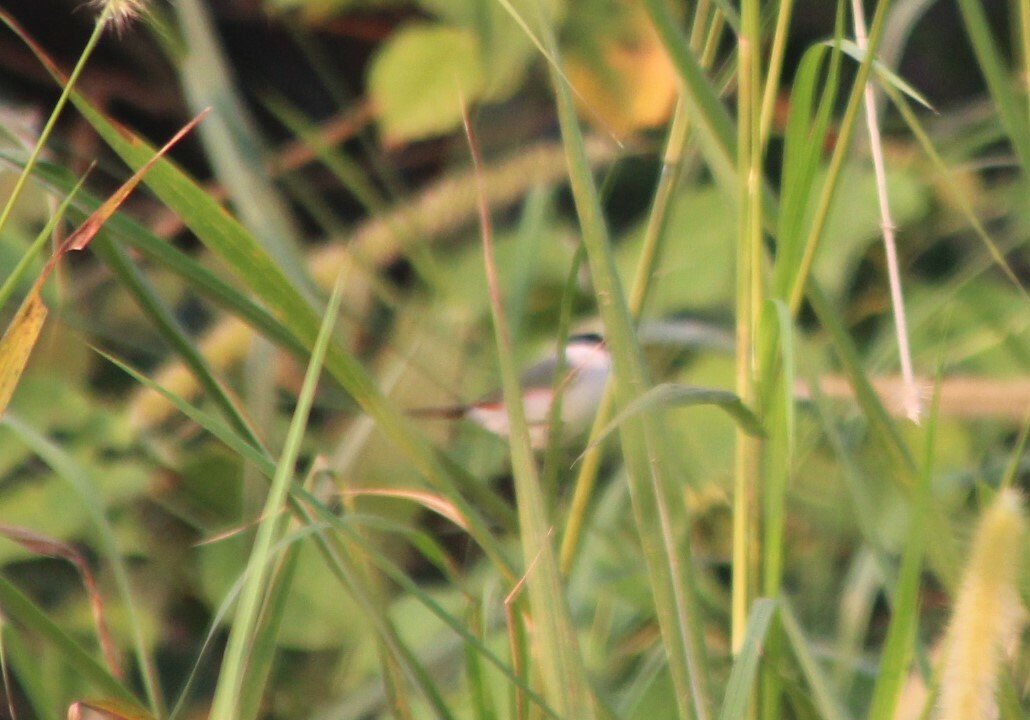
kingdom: Animalia
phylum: Chordata
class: Aves
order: Passeriformes
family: Estrildidae
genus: Estrilda
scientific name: Estrilda nonnula
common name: Black-crowned waxbill
